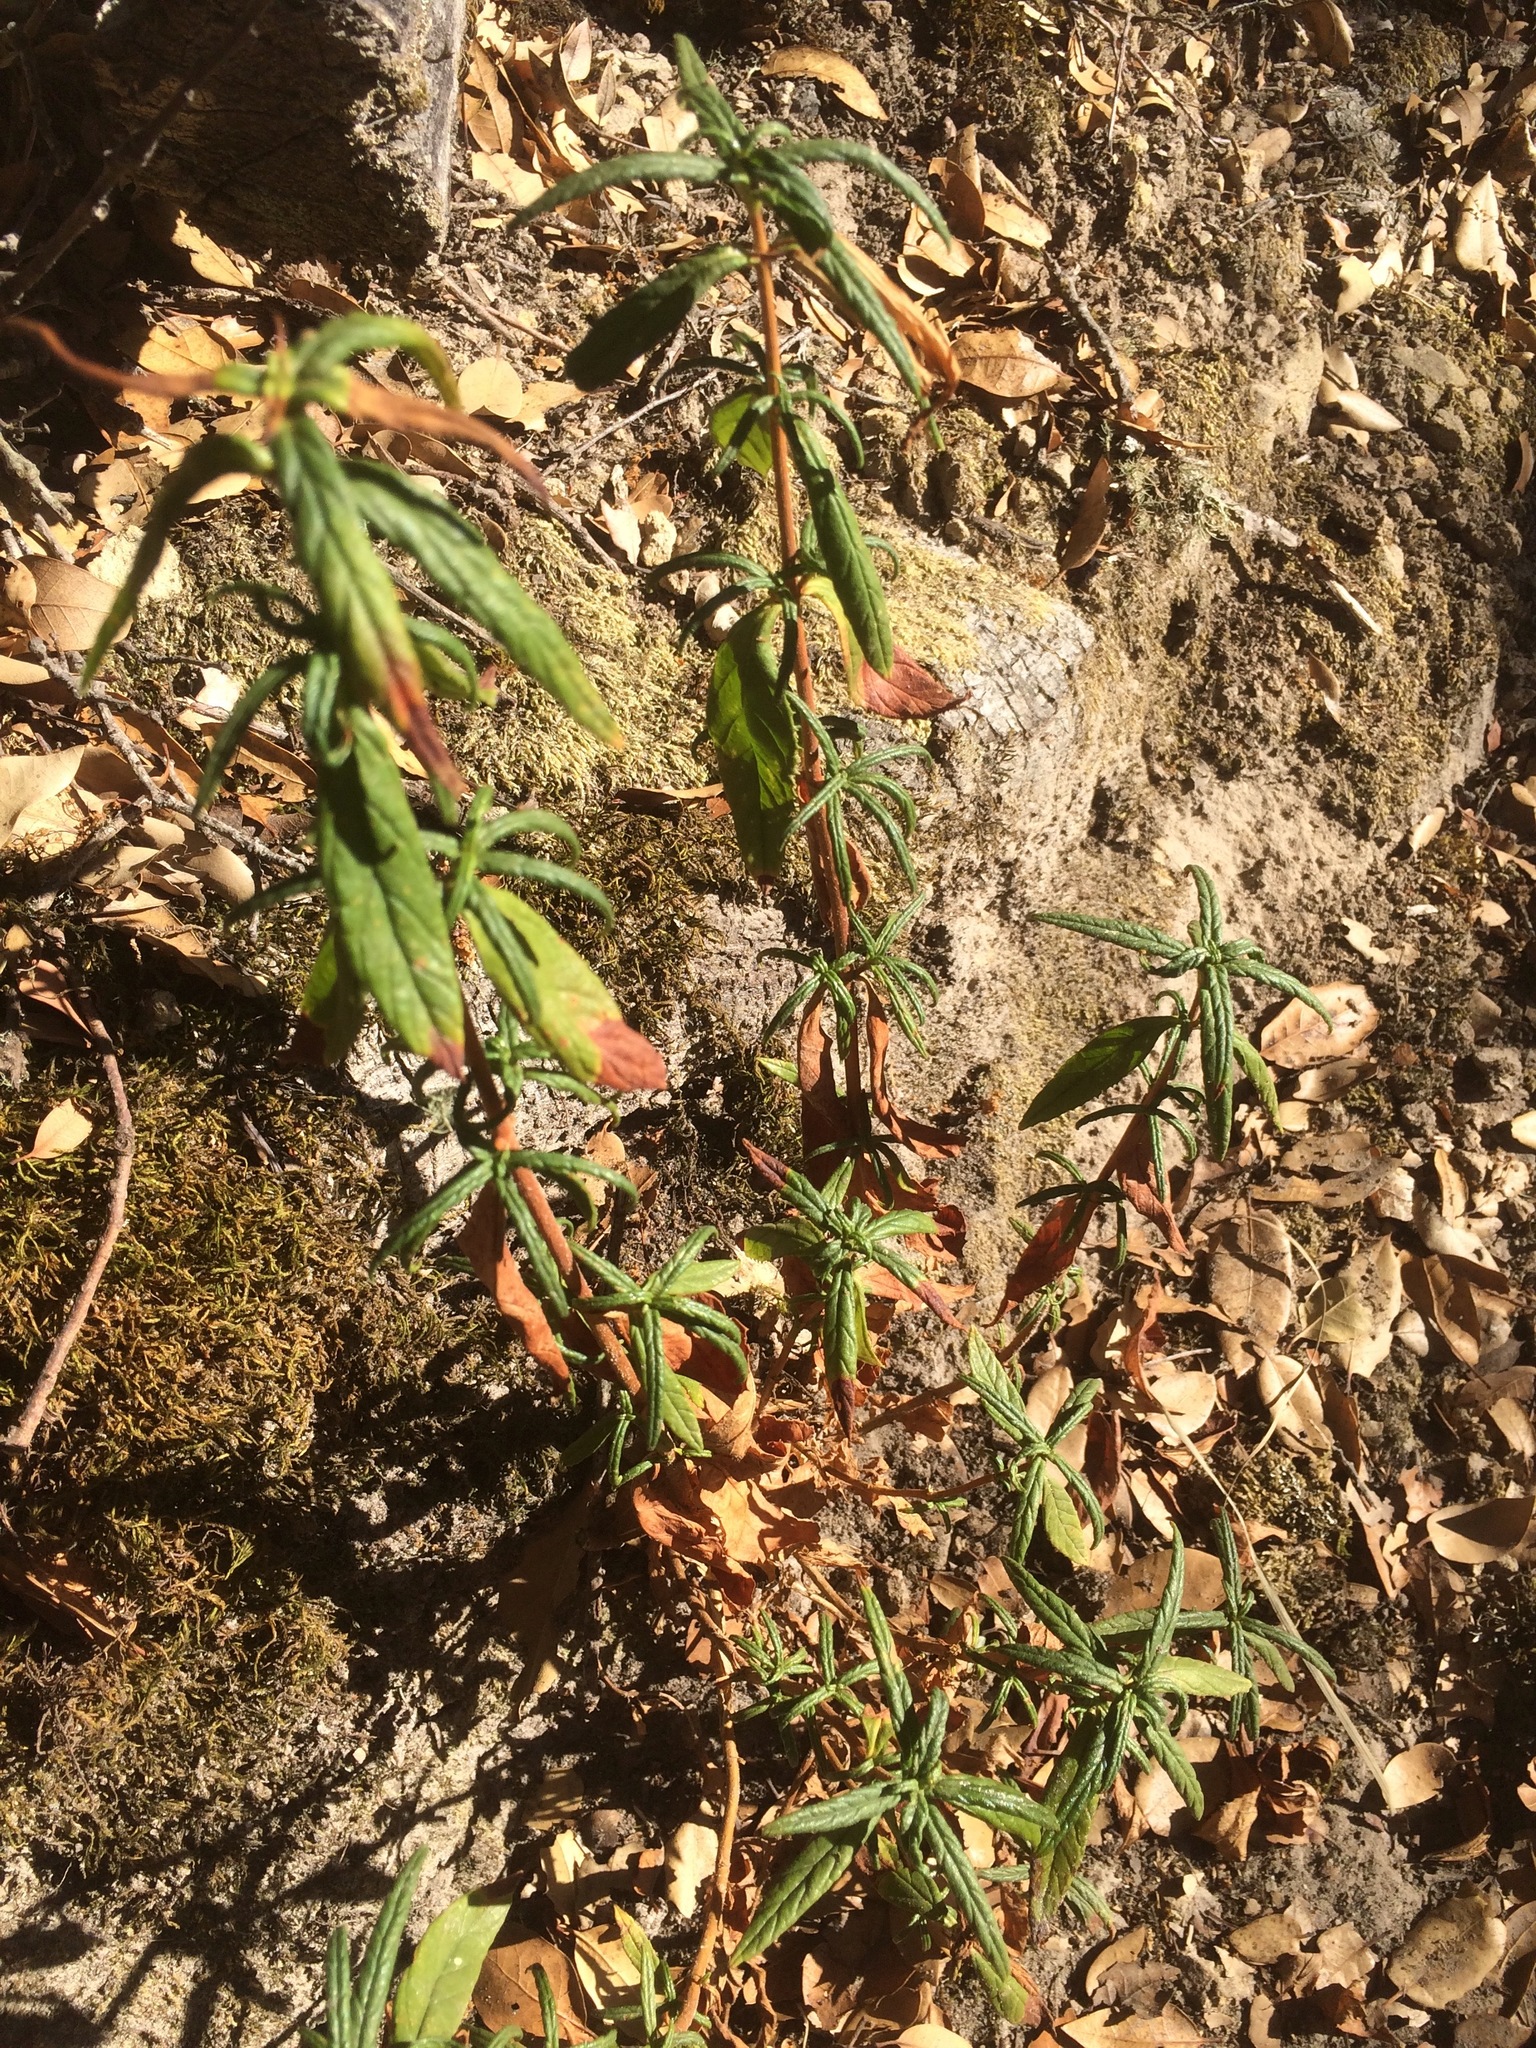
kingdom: Plantae
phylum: Tracheophyta
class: Magnoliopsida
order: Lamiales
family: Phrymaceae
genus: Diplacus
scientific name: Diplacus aurantiacus
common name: Bush monkey-flower
